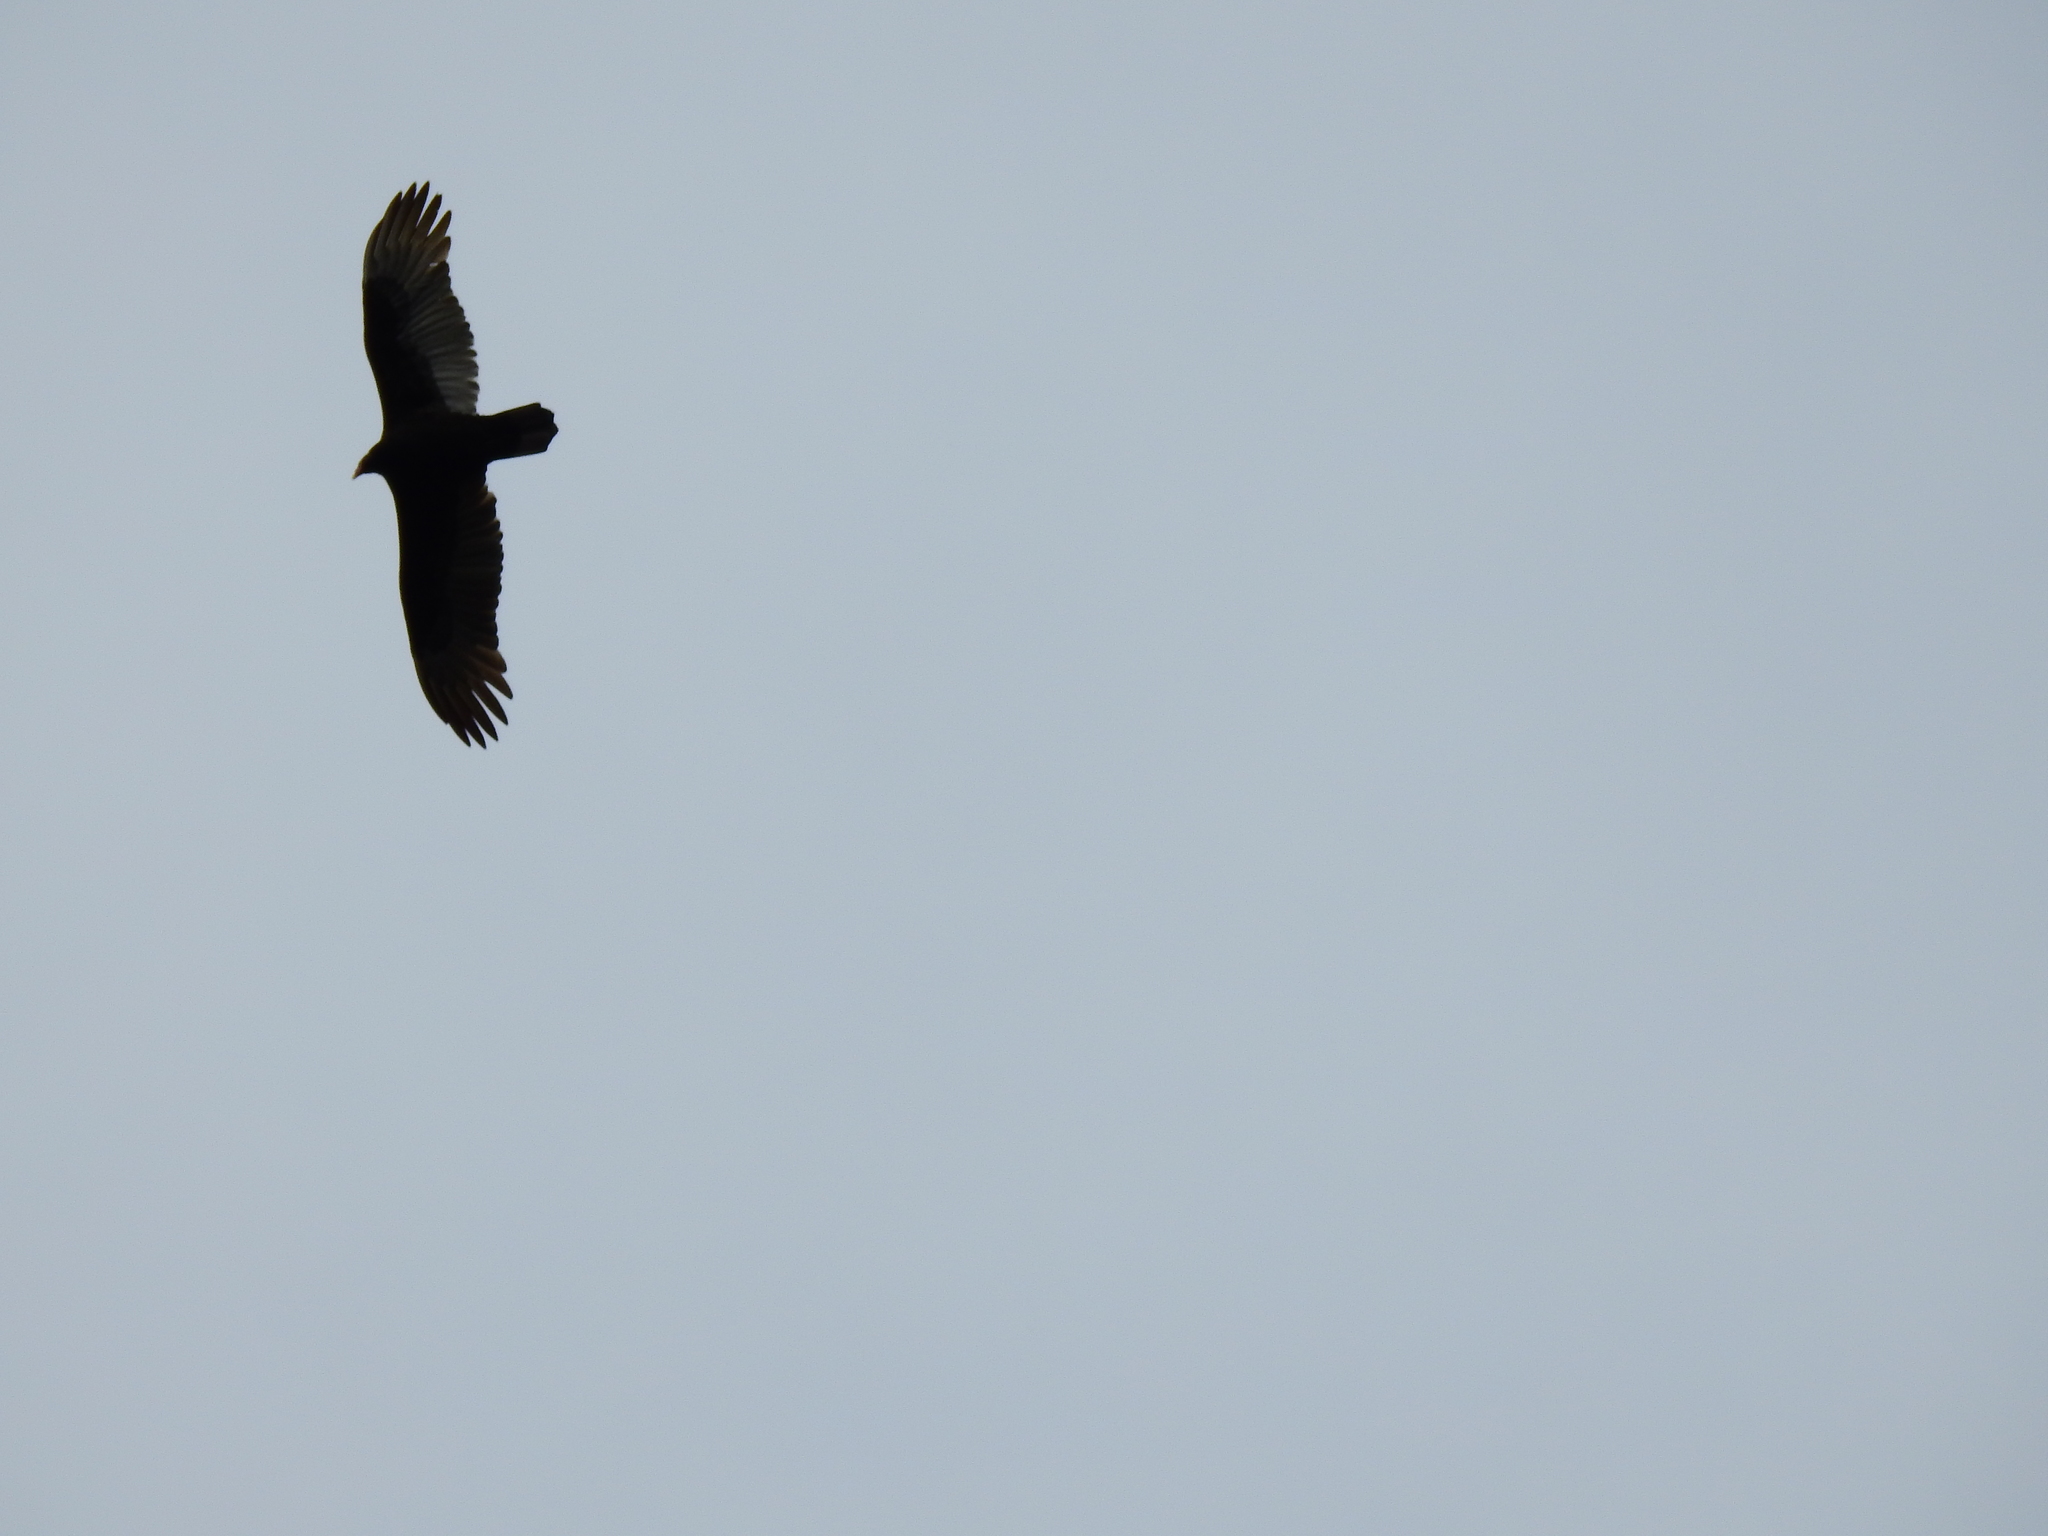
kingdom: Animalia
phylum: Chordata
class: Aves
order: Accipitriformes
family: Cathartidae
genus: Cathartes
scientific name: Cathartes aura
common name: Turkey vulture
